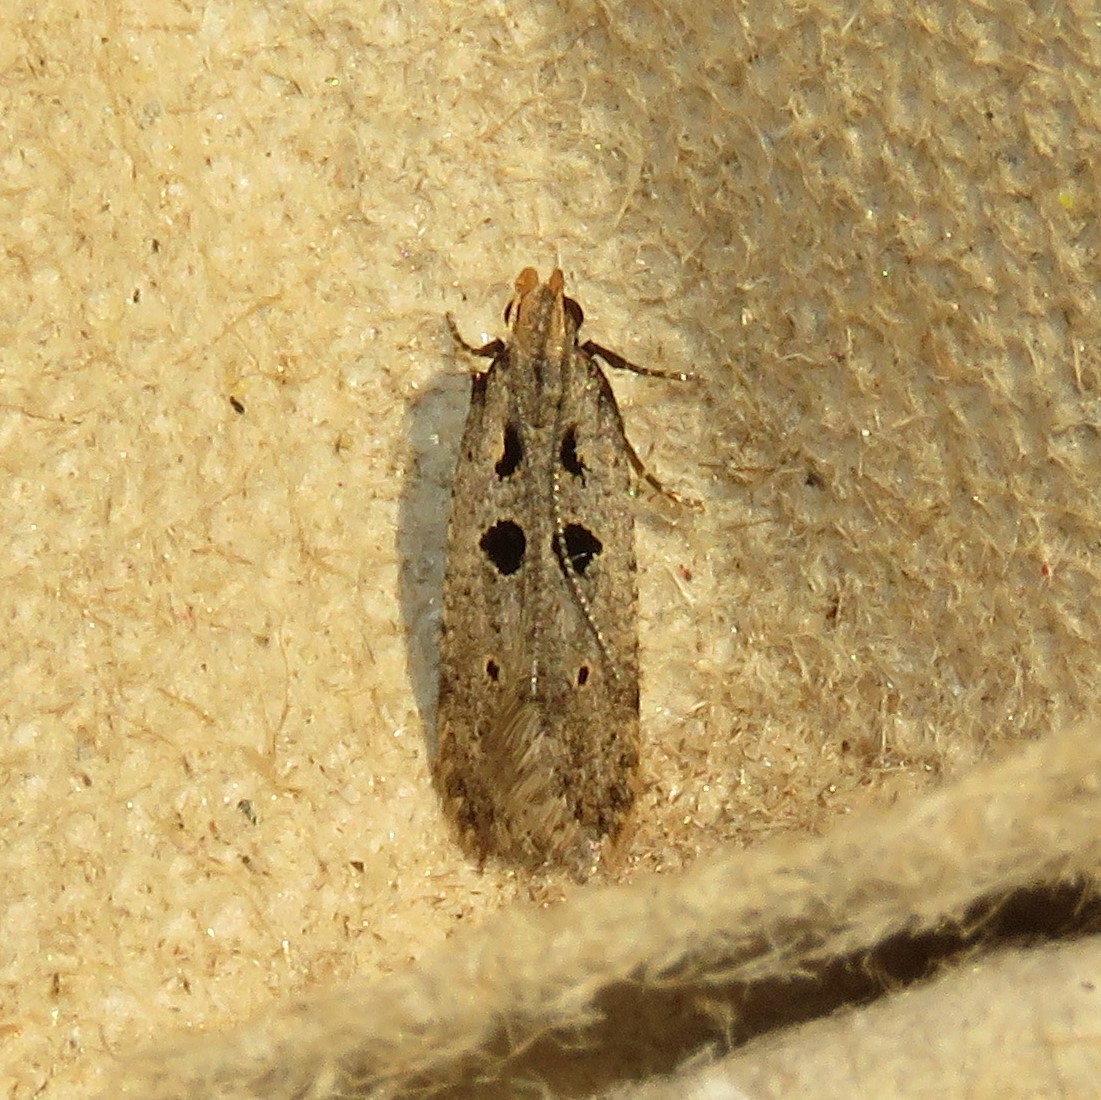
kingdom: Animalia
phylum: Arthropoda
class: Insecta
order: Lepidoptera
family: Gelechiidae
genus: Deltophora
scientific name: Deltophora sella
